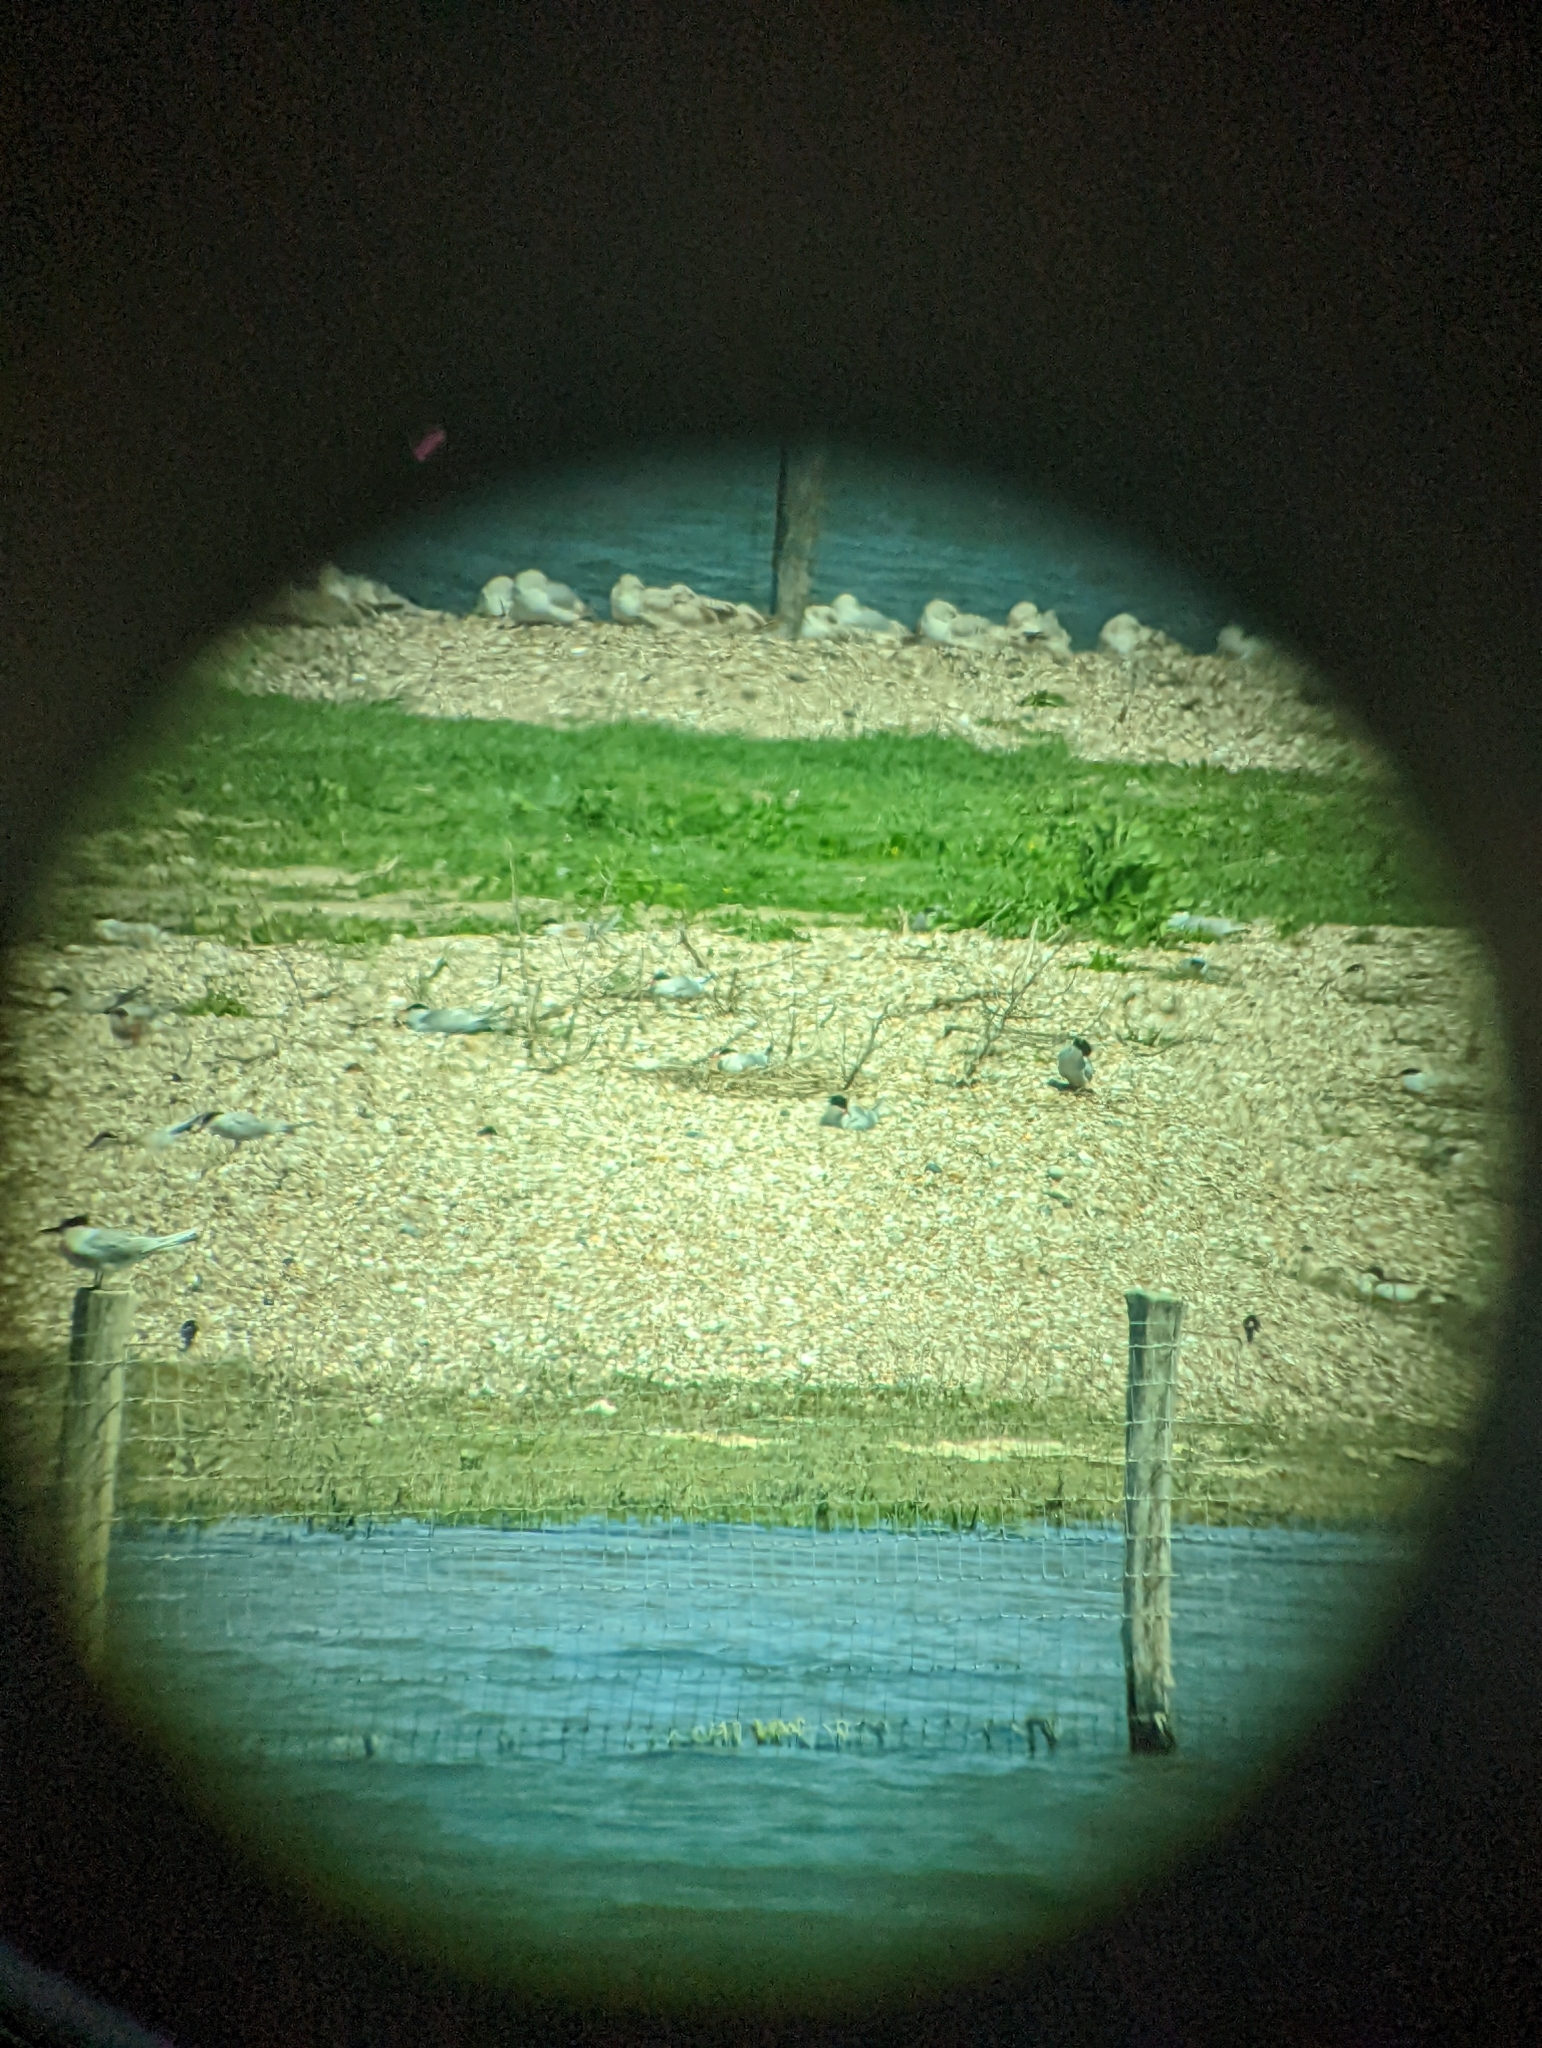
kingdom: Animalia
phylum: Chordata
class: Aves
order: Charadriiformes
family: Laridae
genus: Sterna
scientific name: Sterna hirundo
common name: Common tern
